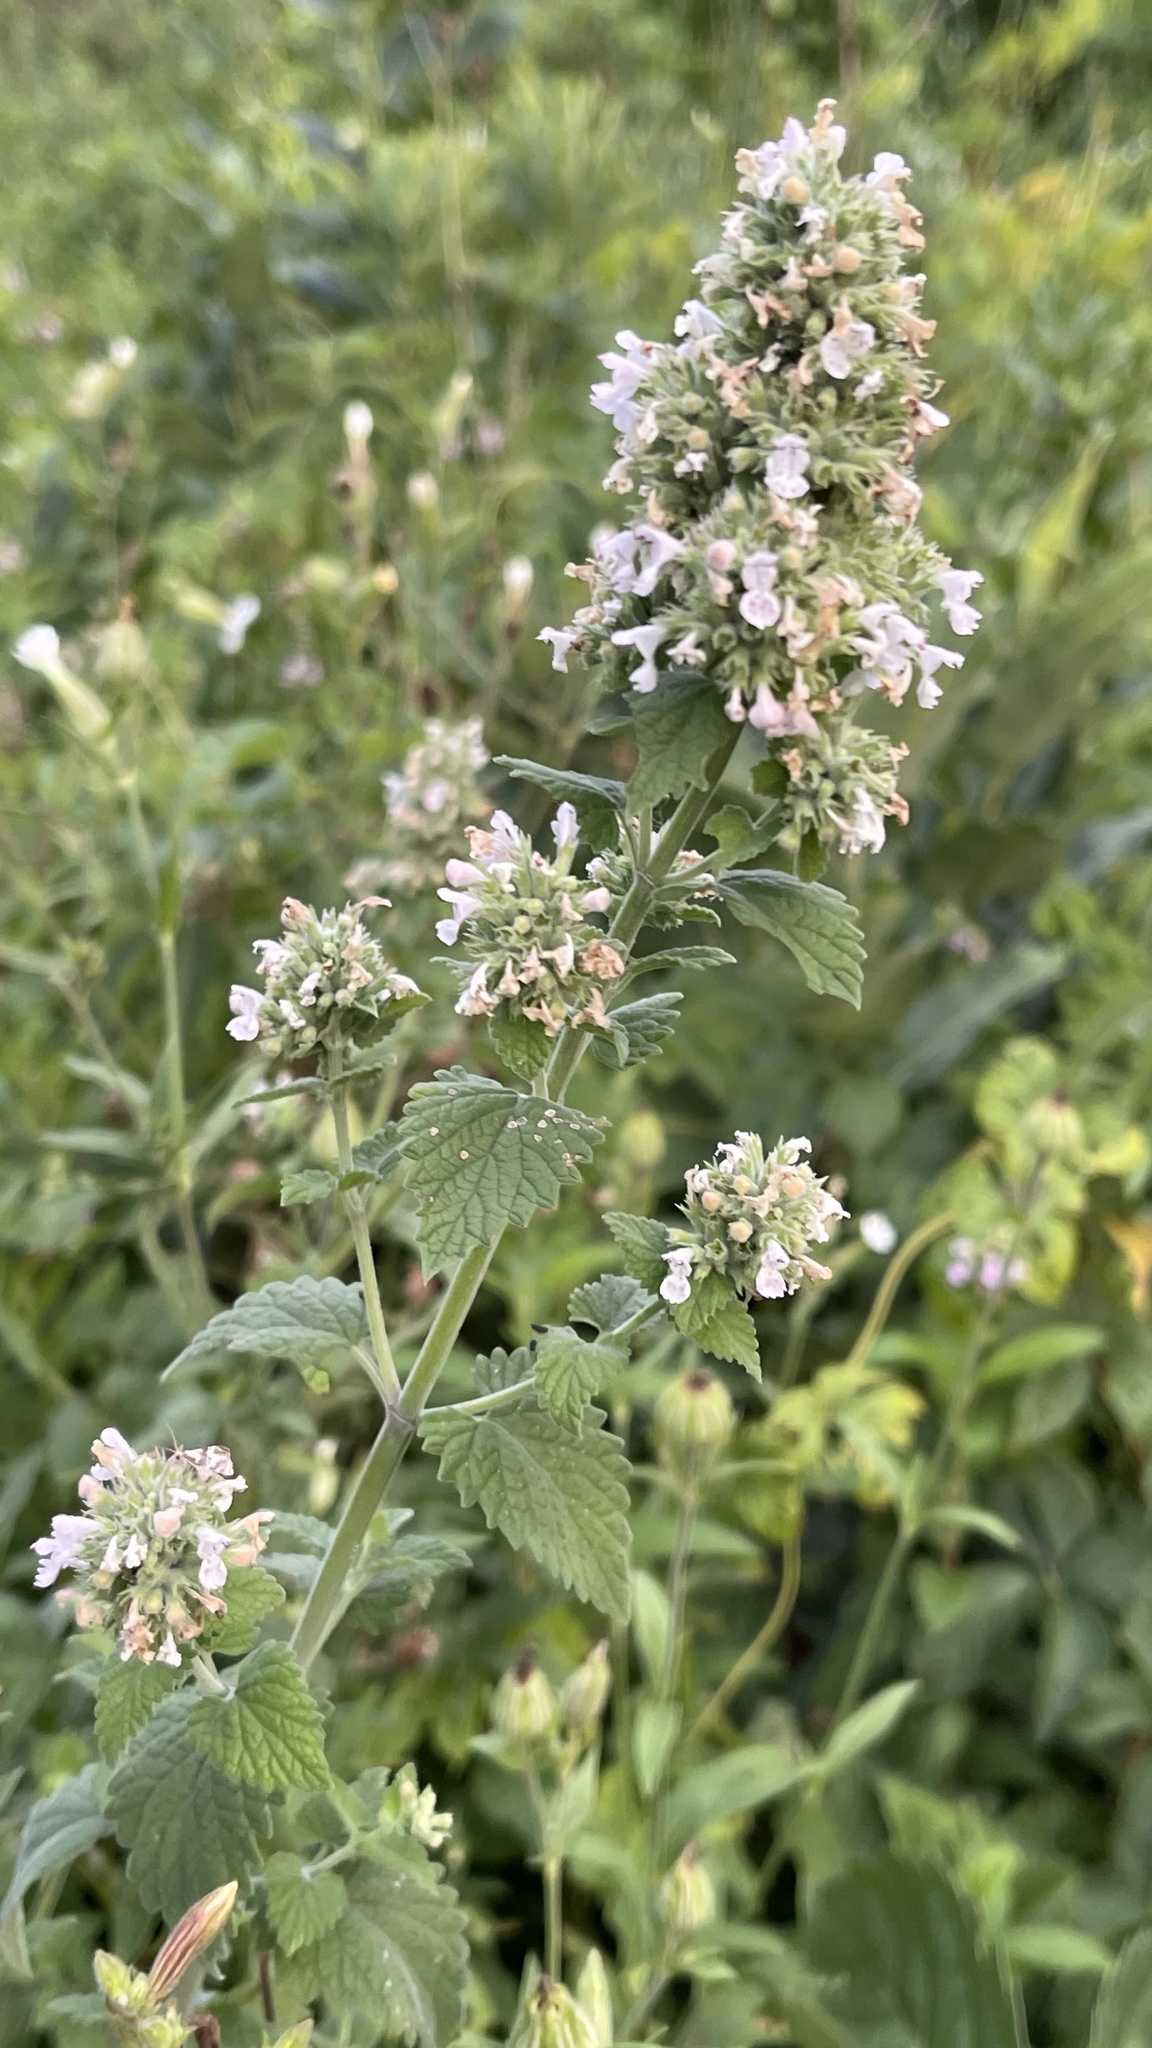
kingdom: Plantae
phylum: Tracheophyta
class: Magnoliopsida
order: Lamiales
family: Lamiaceae
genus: Nepeta
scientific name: Nepeta cataria
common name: Catnip
